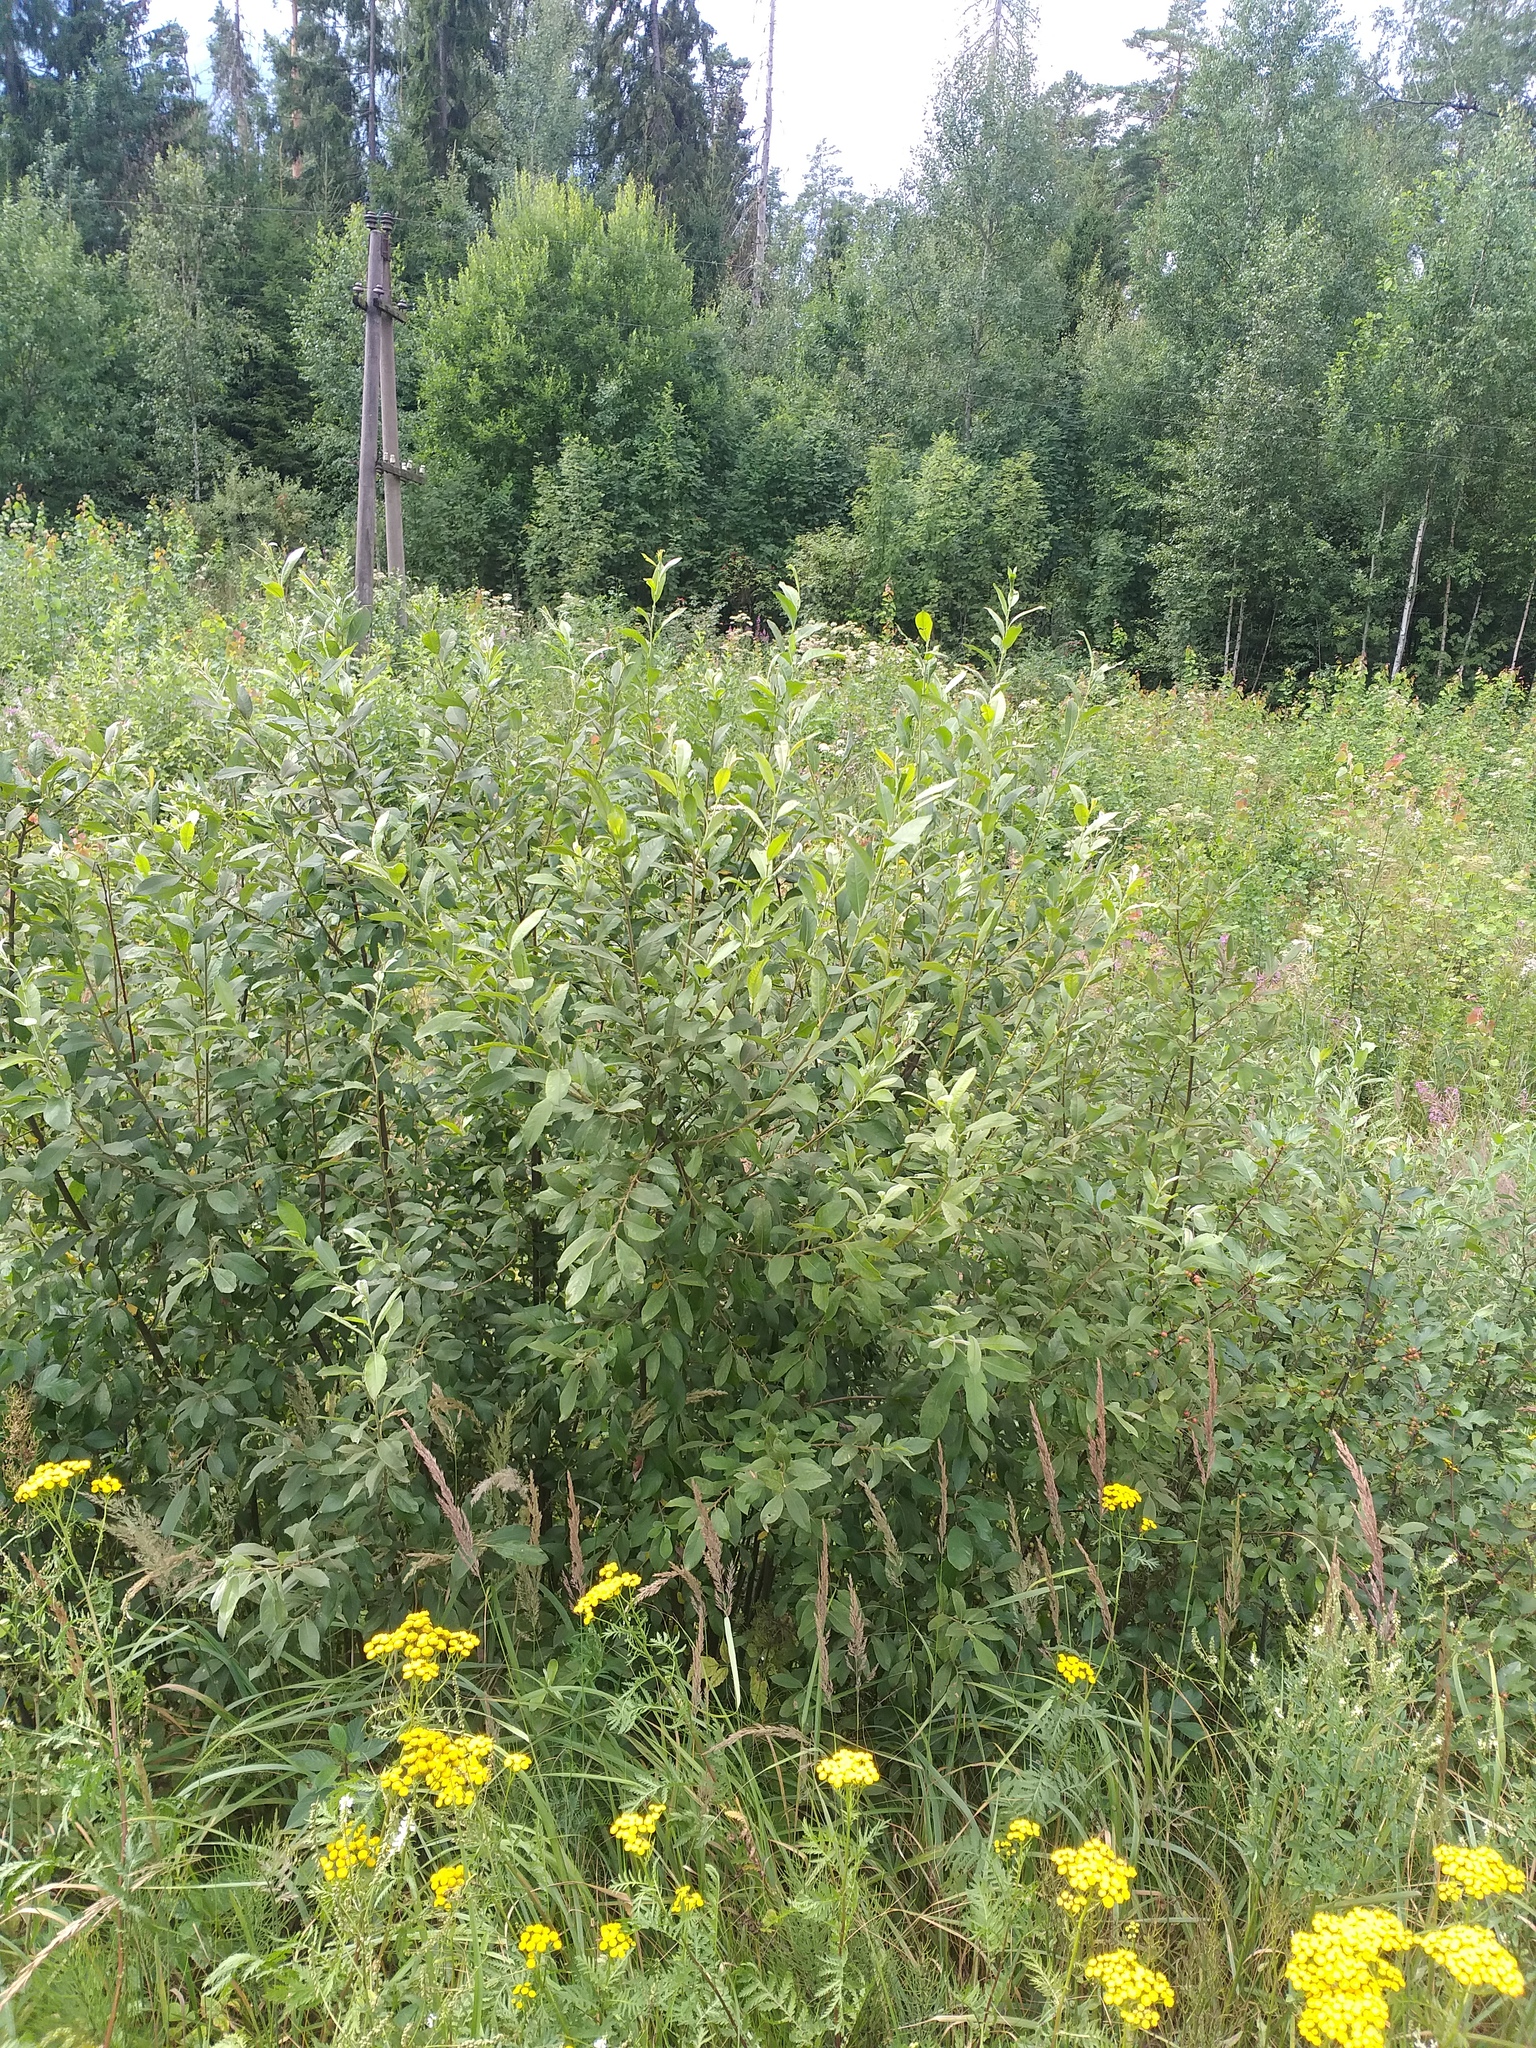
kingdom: Plantae
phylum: Tracheophyta
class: Magnoliopsida
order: Malpighiales
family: Salicaceae
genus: Salix
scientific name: Salix cinerea
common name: Common sallow
